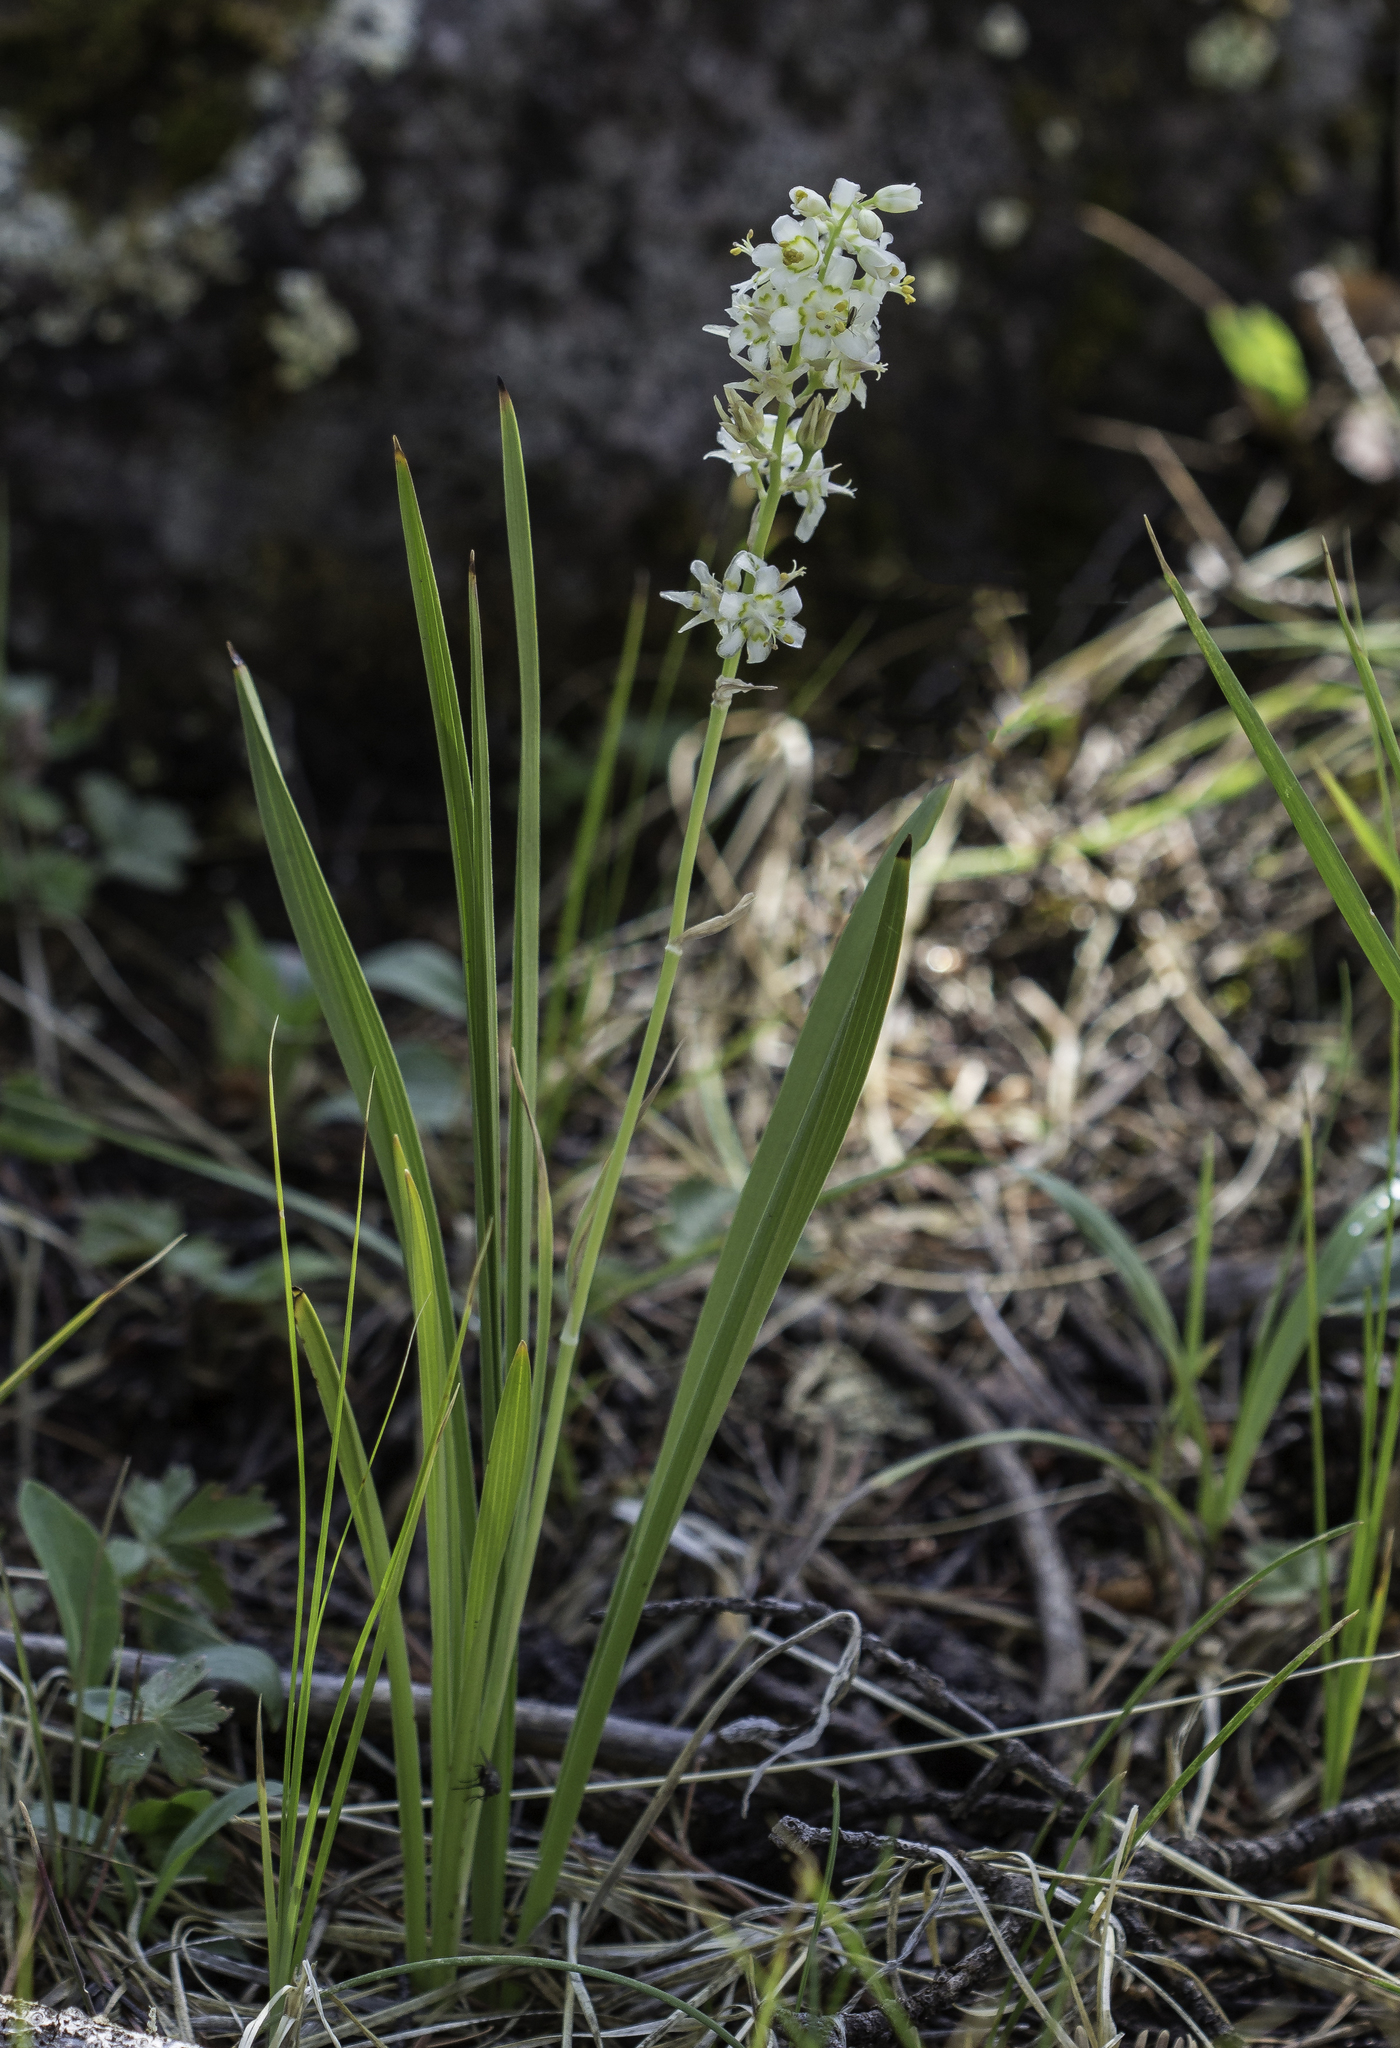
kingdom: Plantae
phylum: Tracheophyta
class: Liliopsida
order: Liliales
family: Melanthiaceae
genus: Anticlea
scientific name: Anticlea elegans
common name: Mountain death camas
